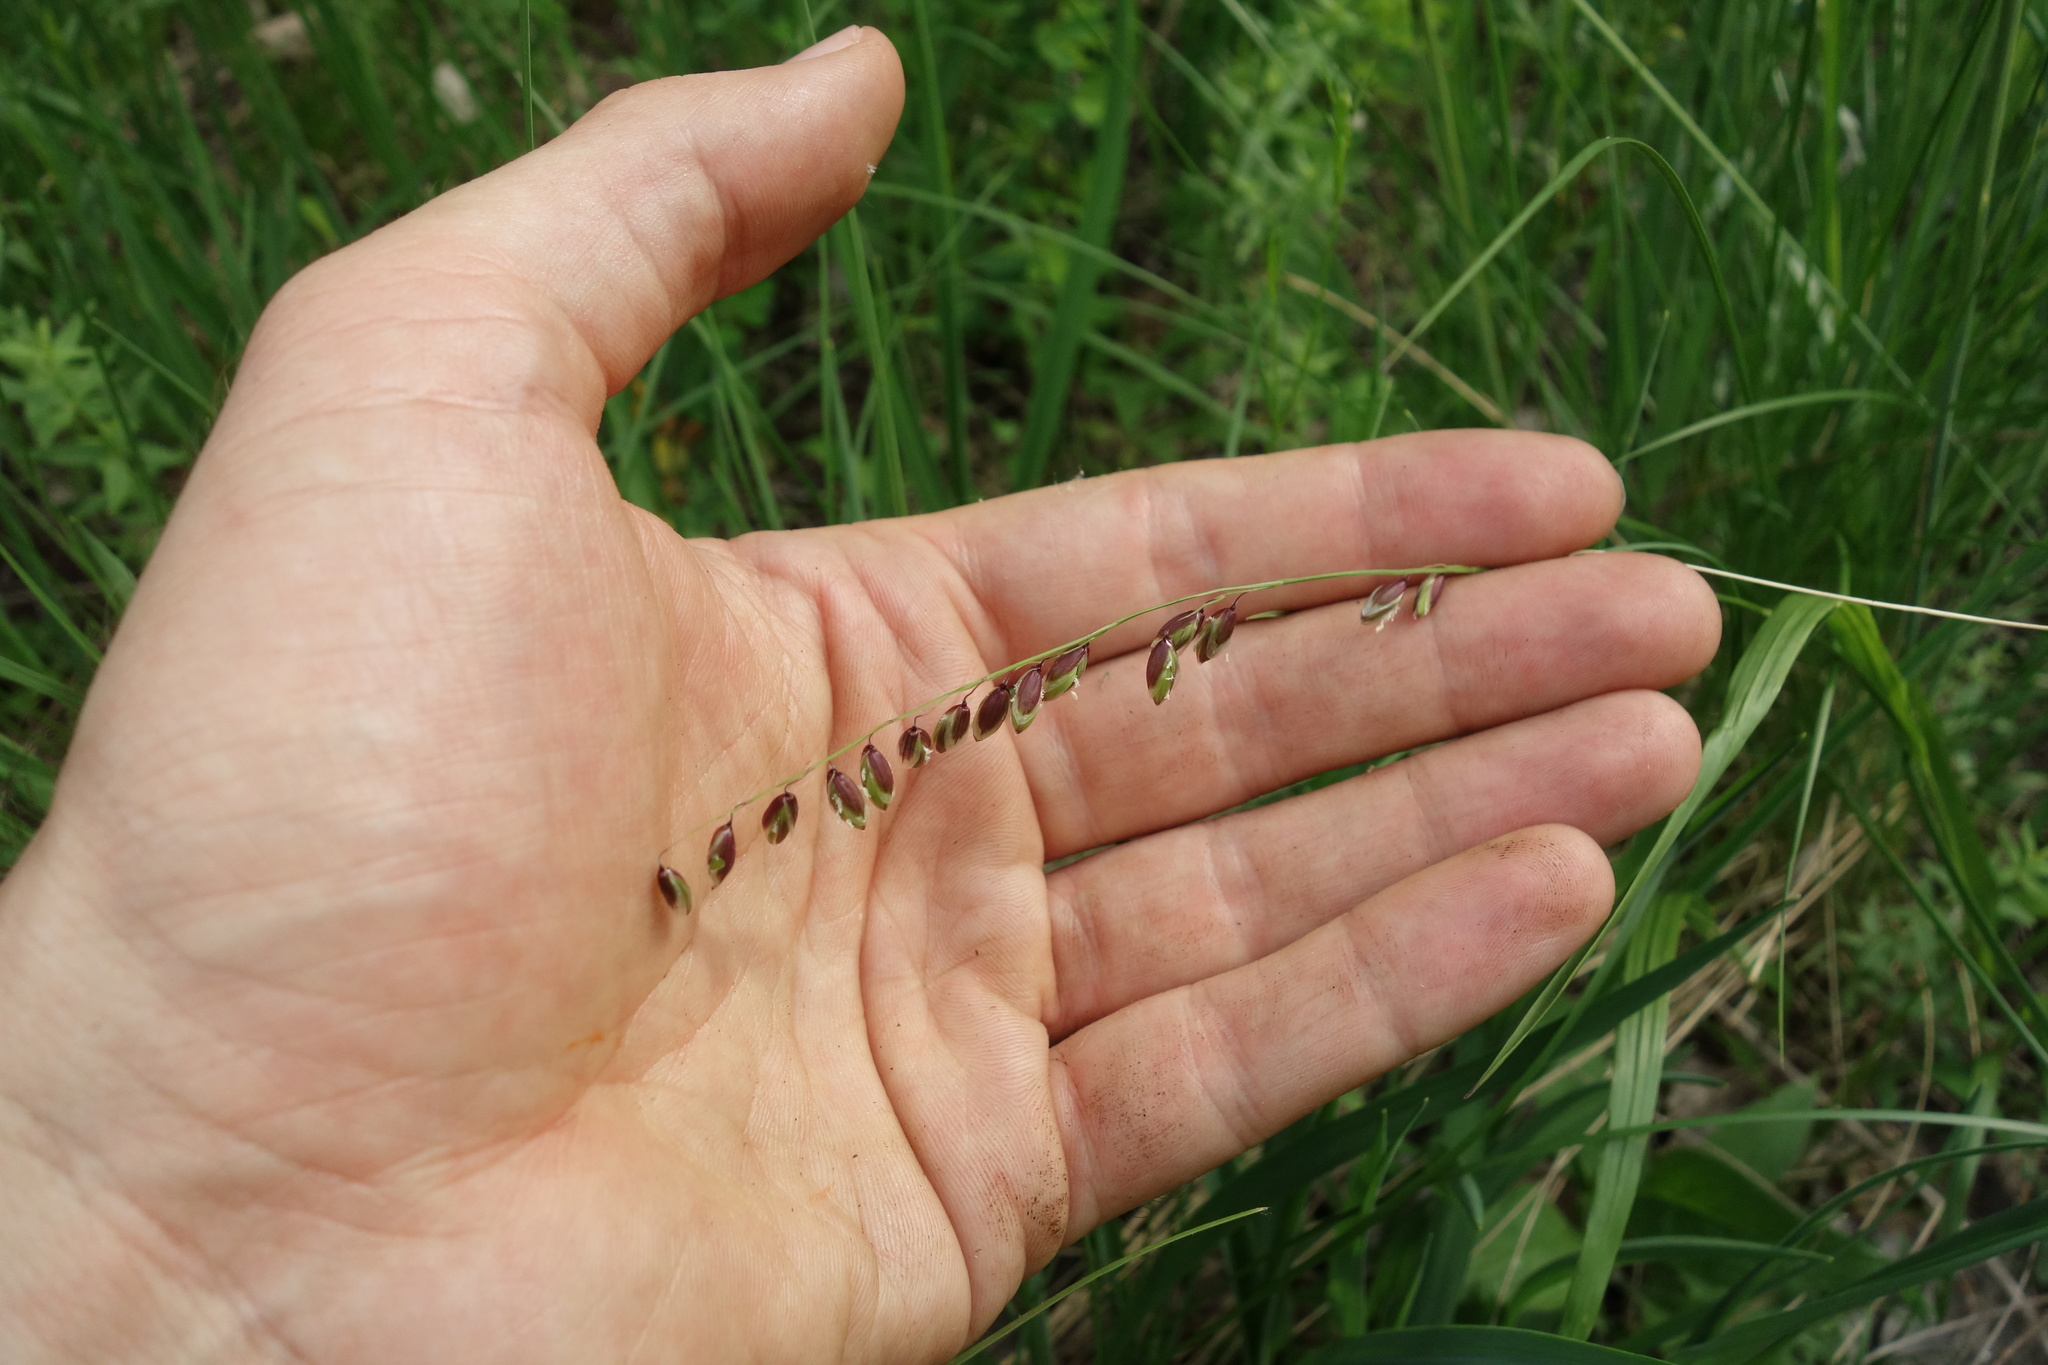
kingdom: Plantae
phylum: Tracheophyta
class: Liliopsida
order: Poales
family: Poaceae
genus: Melica
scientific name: Melica nutans
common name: Mountain melick
